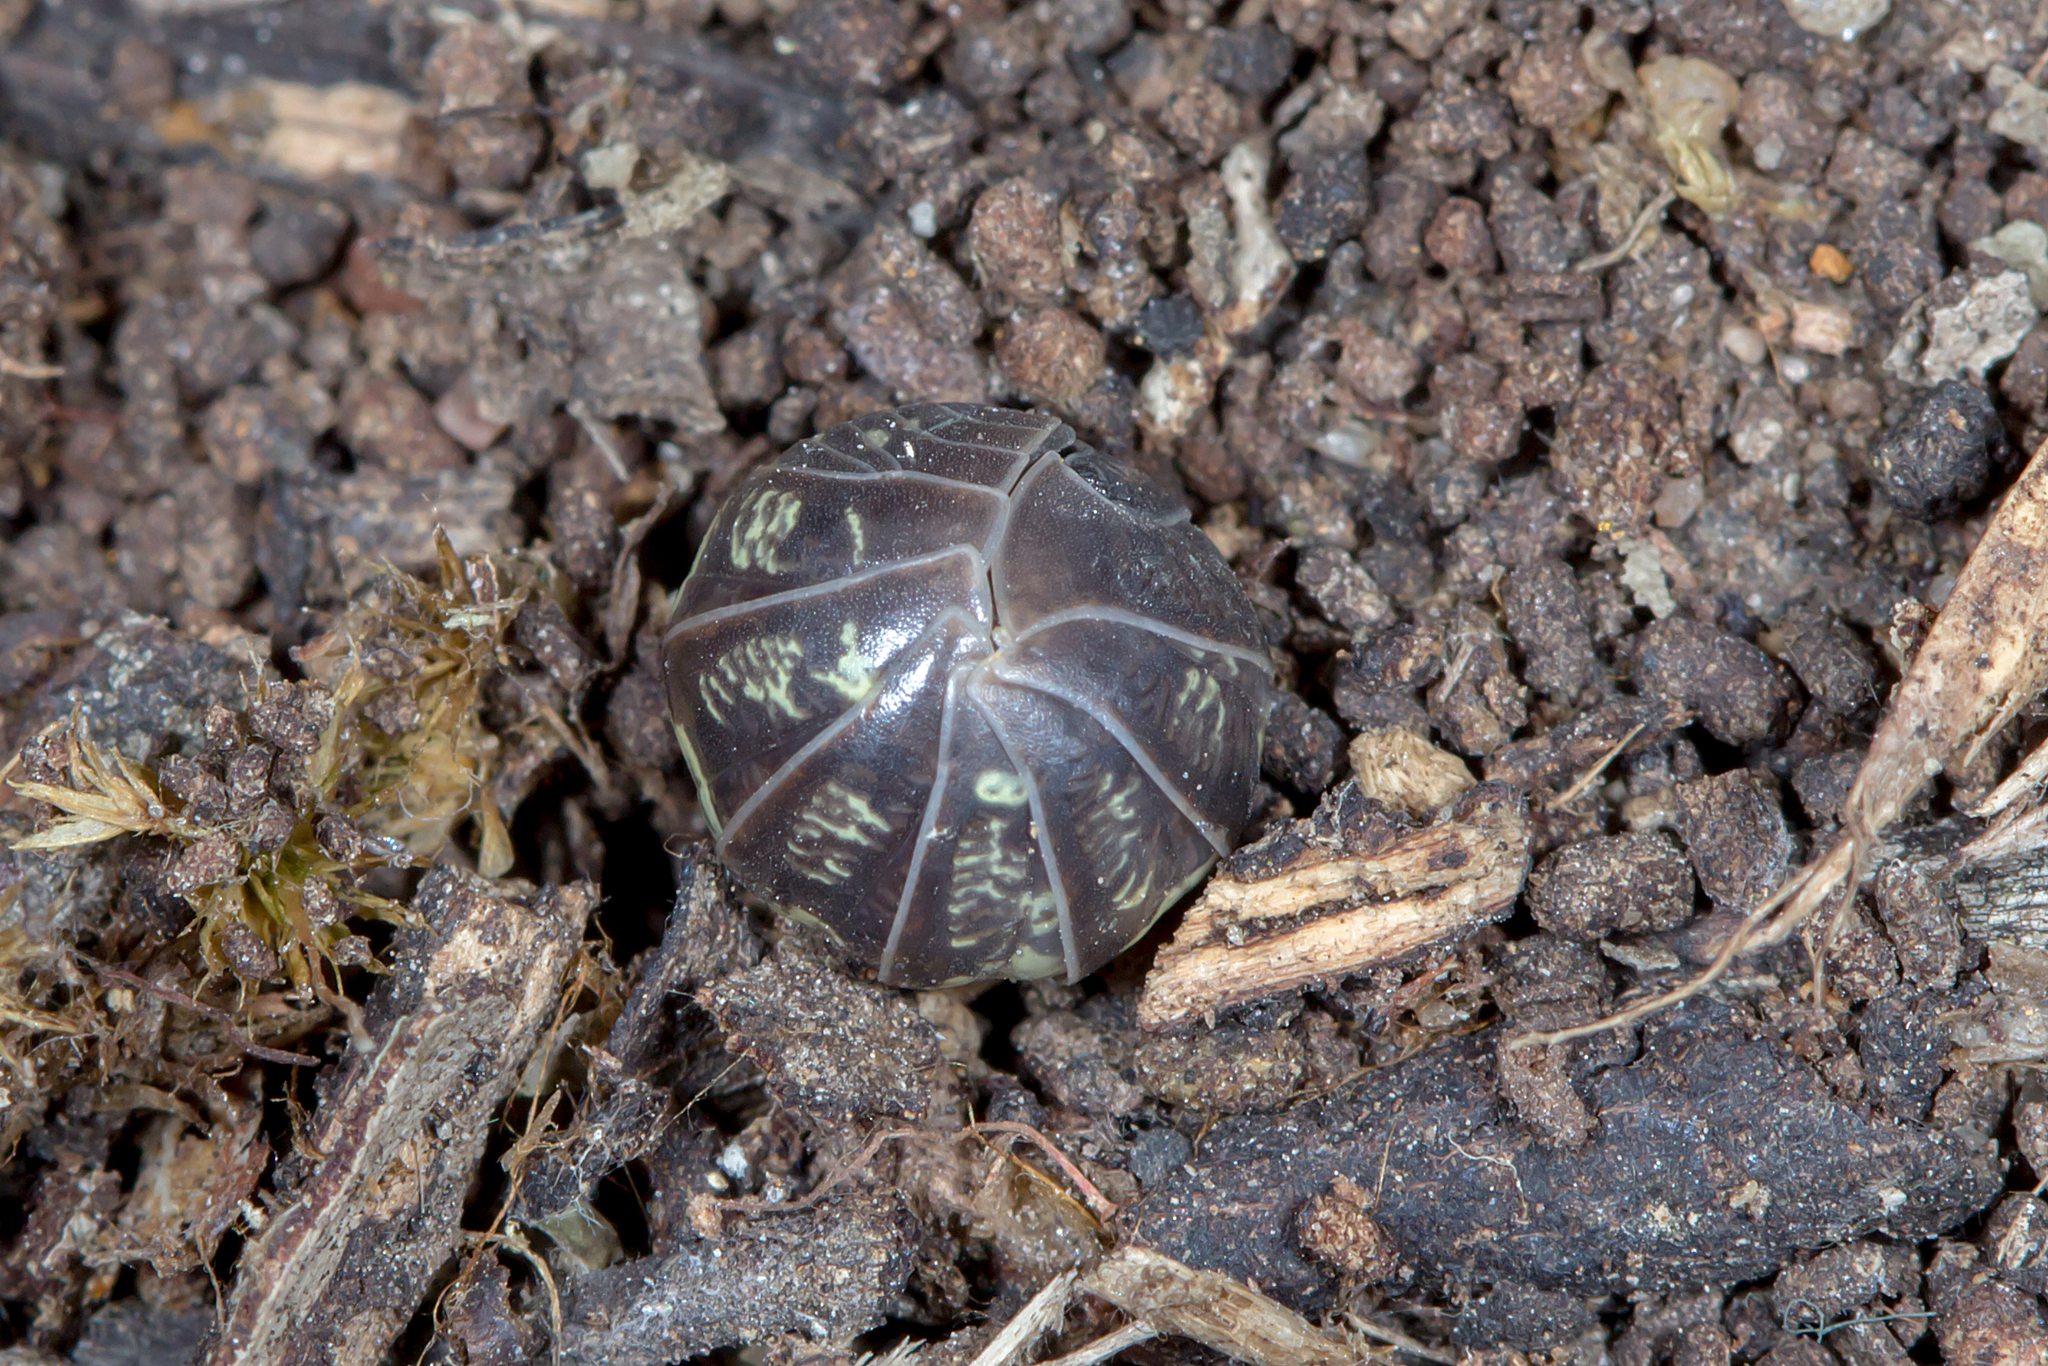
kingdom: Animalia
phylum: Arthropoda
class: Malacostraca
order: Isopoda
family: Armadillidiidae
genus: Armadillidium
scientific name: Armadillidium vulgare
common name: Common pill woodlouse
